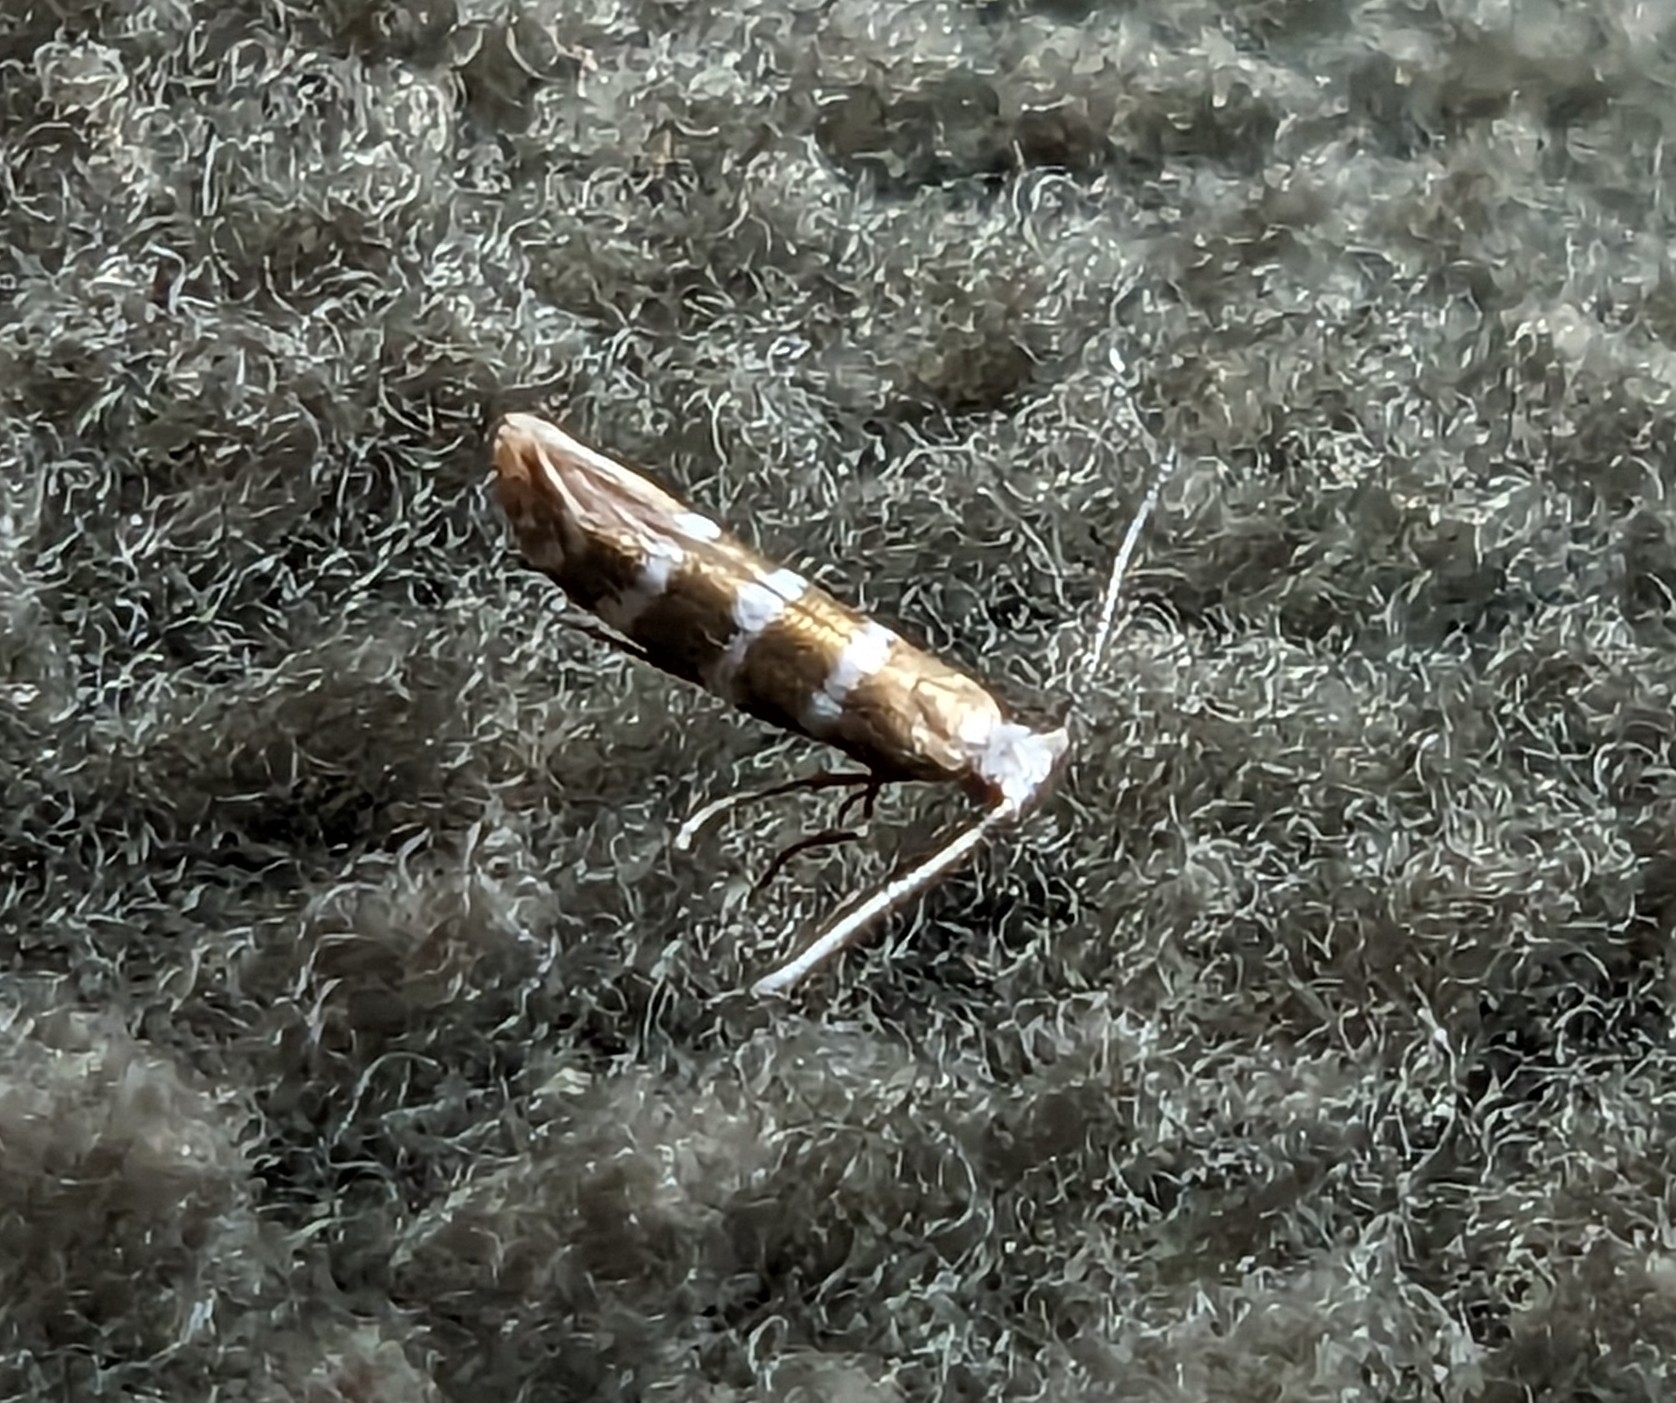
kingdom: Animalia
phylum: Arthropoda
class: Insecta
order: Lepidoptera
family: Argyresthiidae
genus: Argyresthia
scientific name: Argyresthia trifasciata
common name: Triple-barred argent
